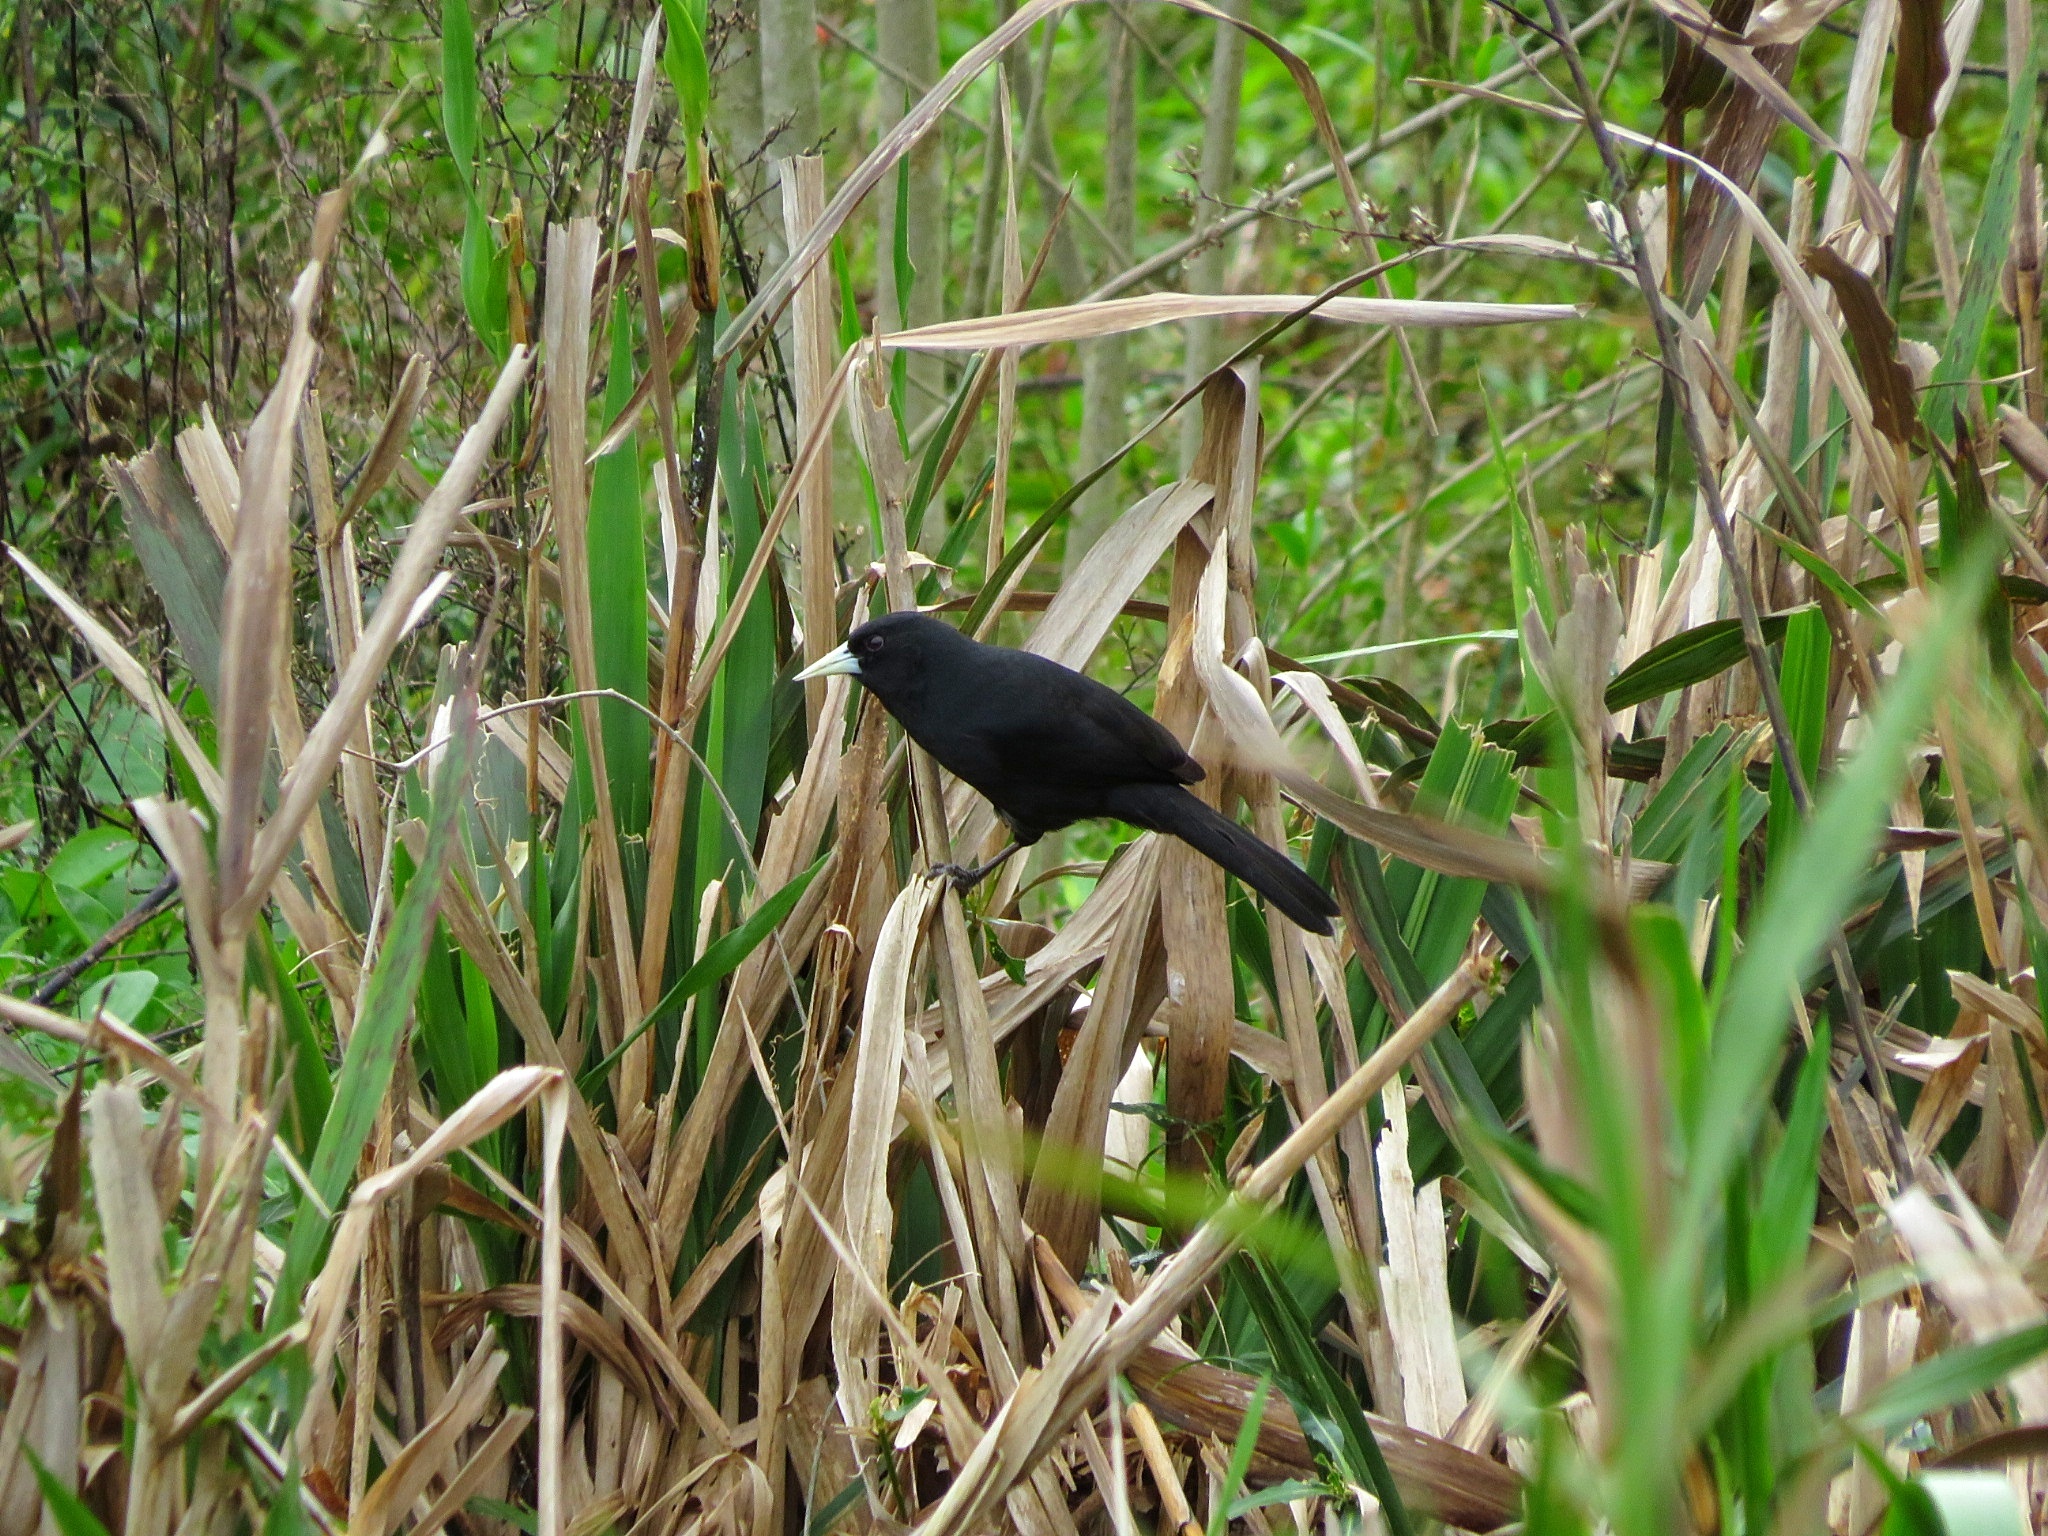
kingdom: Animalia
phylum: Chordata
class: Aves
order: Passeriformes
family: Icteridae
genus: Cacicus
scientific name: Cacicus solitarius
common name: Solitary cacique
